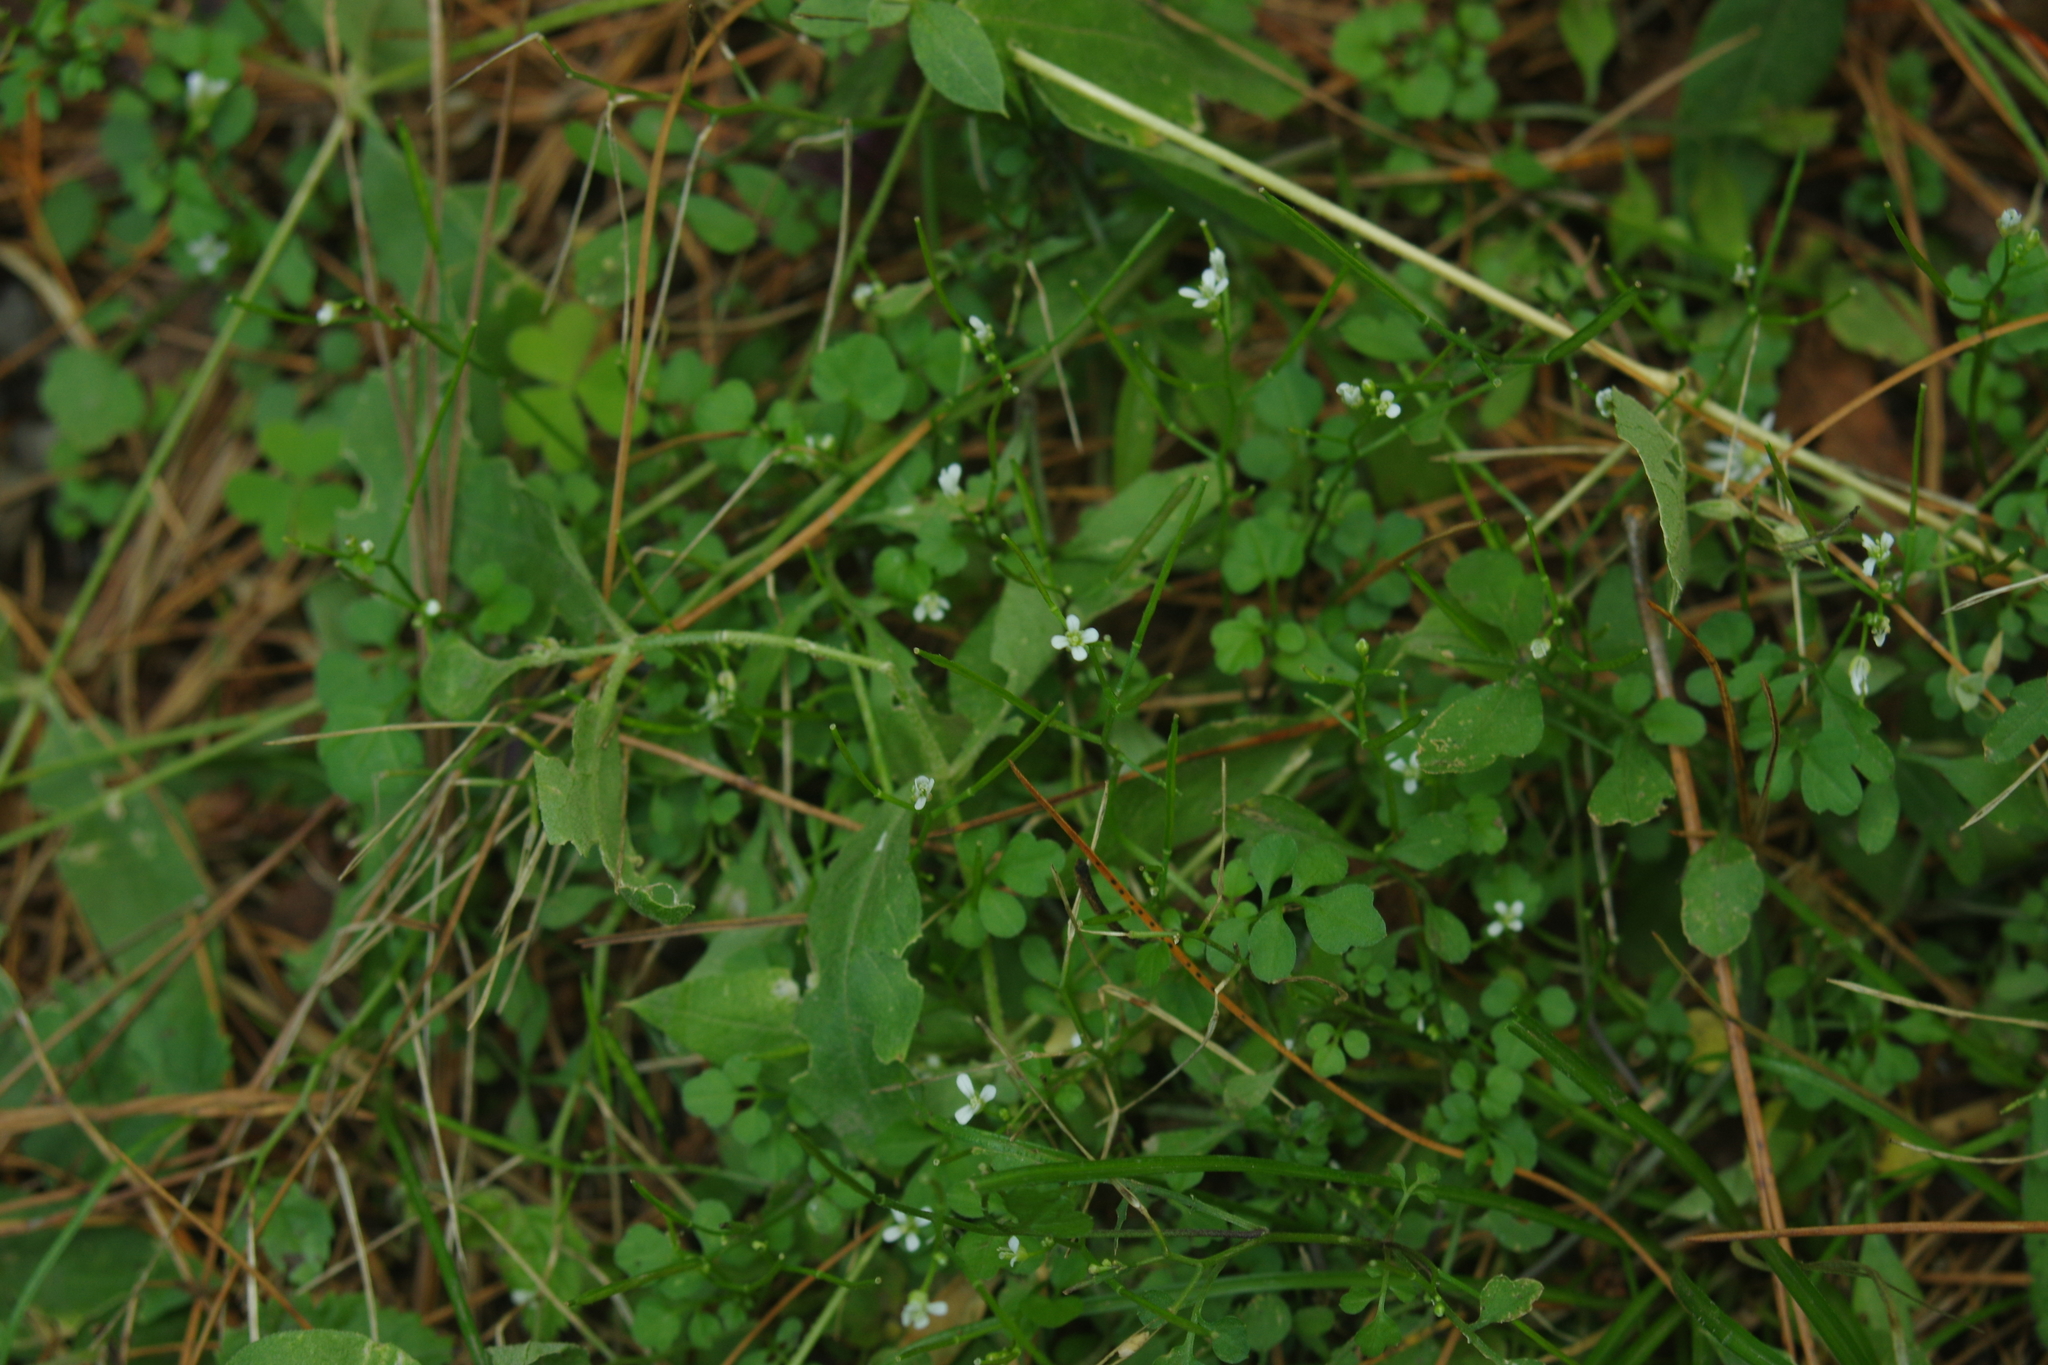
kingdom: Plantae
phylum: Tracheophyta
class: Magnoliopsida
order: Brassicales
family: Brassicaceae
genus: Cardamine
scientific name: Cardamine flexuosa
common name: Woodland bittercress
